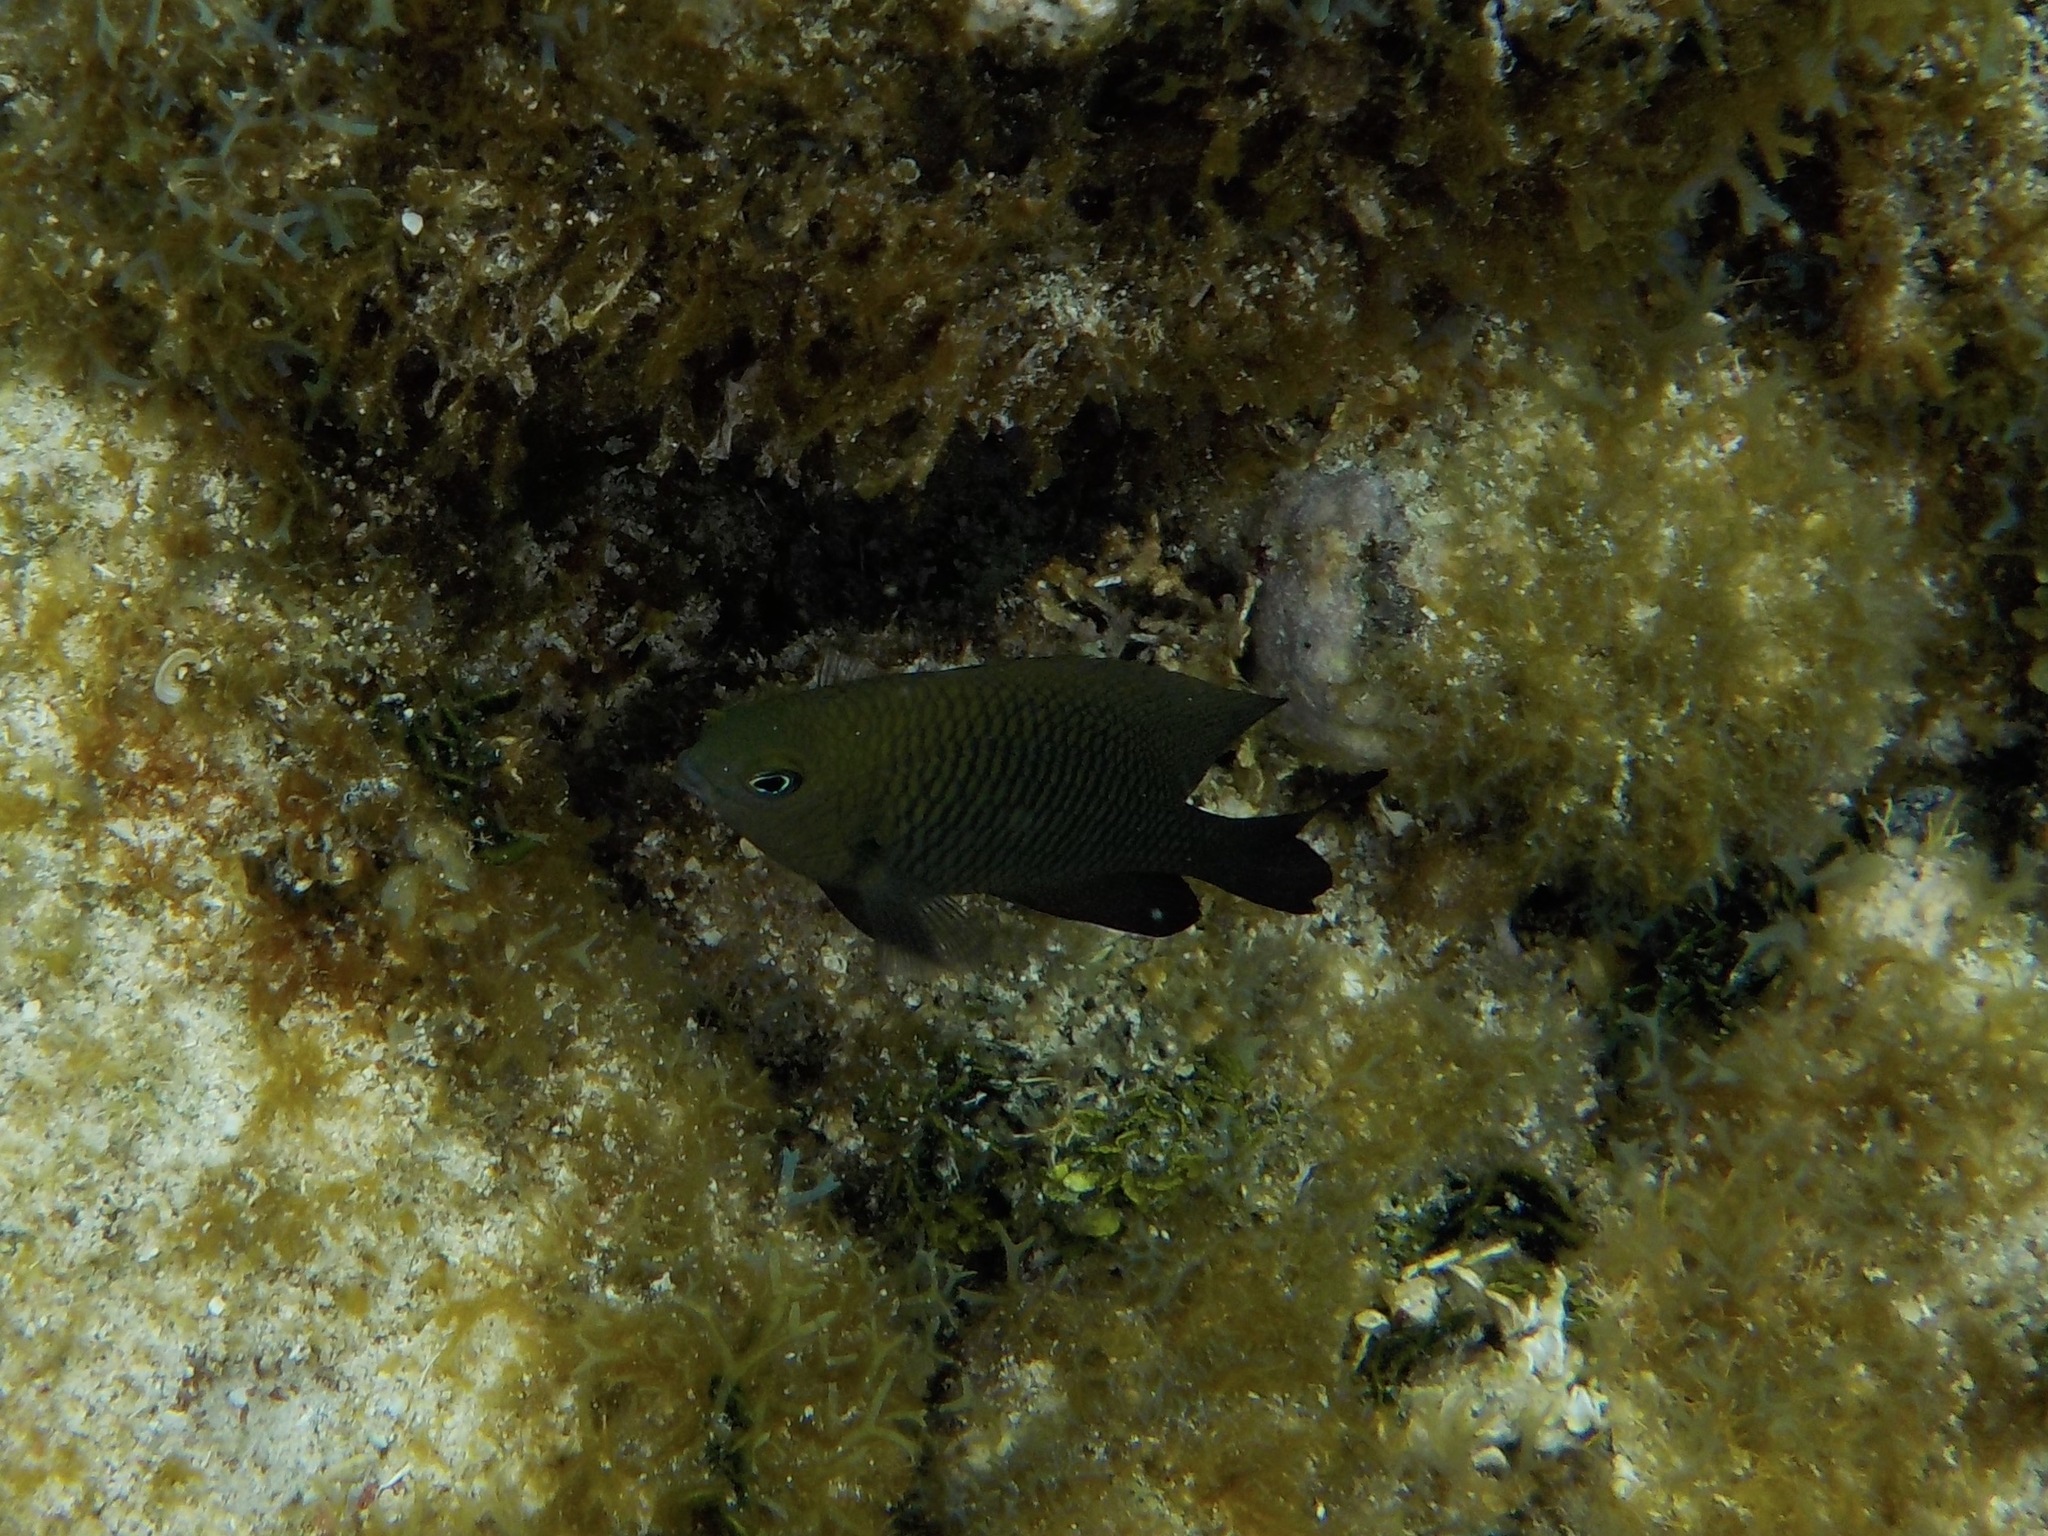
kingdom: Animalia
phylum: Chordata
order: Perciformes
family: Pomacentridae
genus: Stegastes
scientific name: Stegastes
